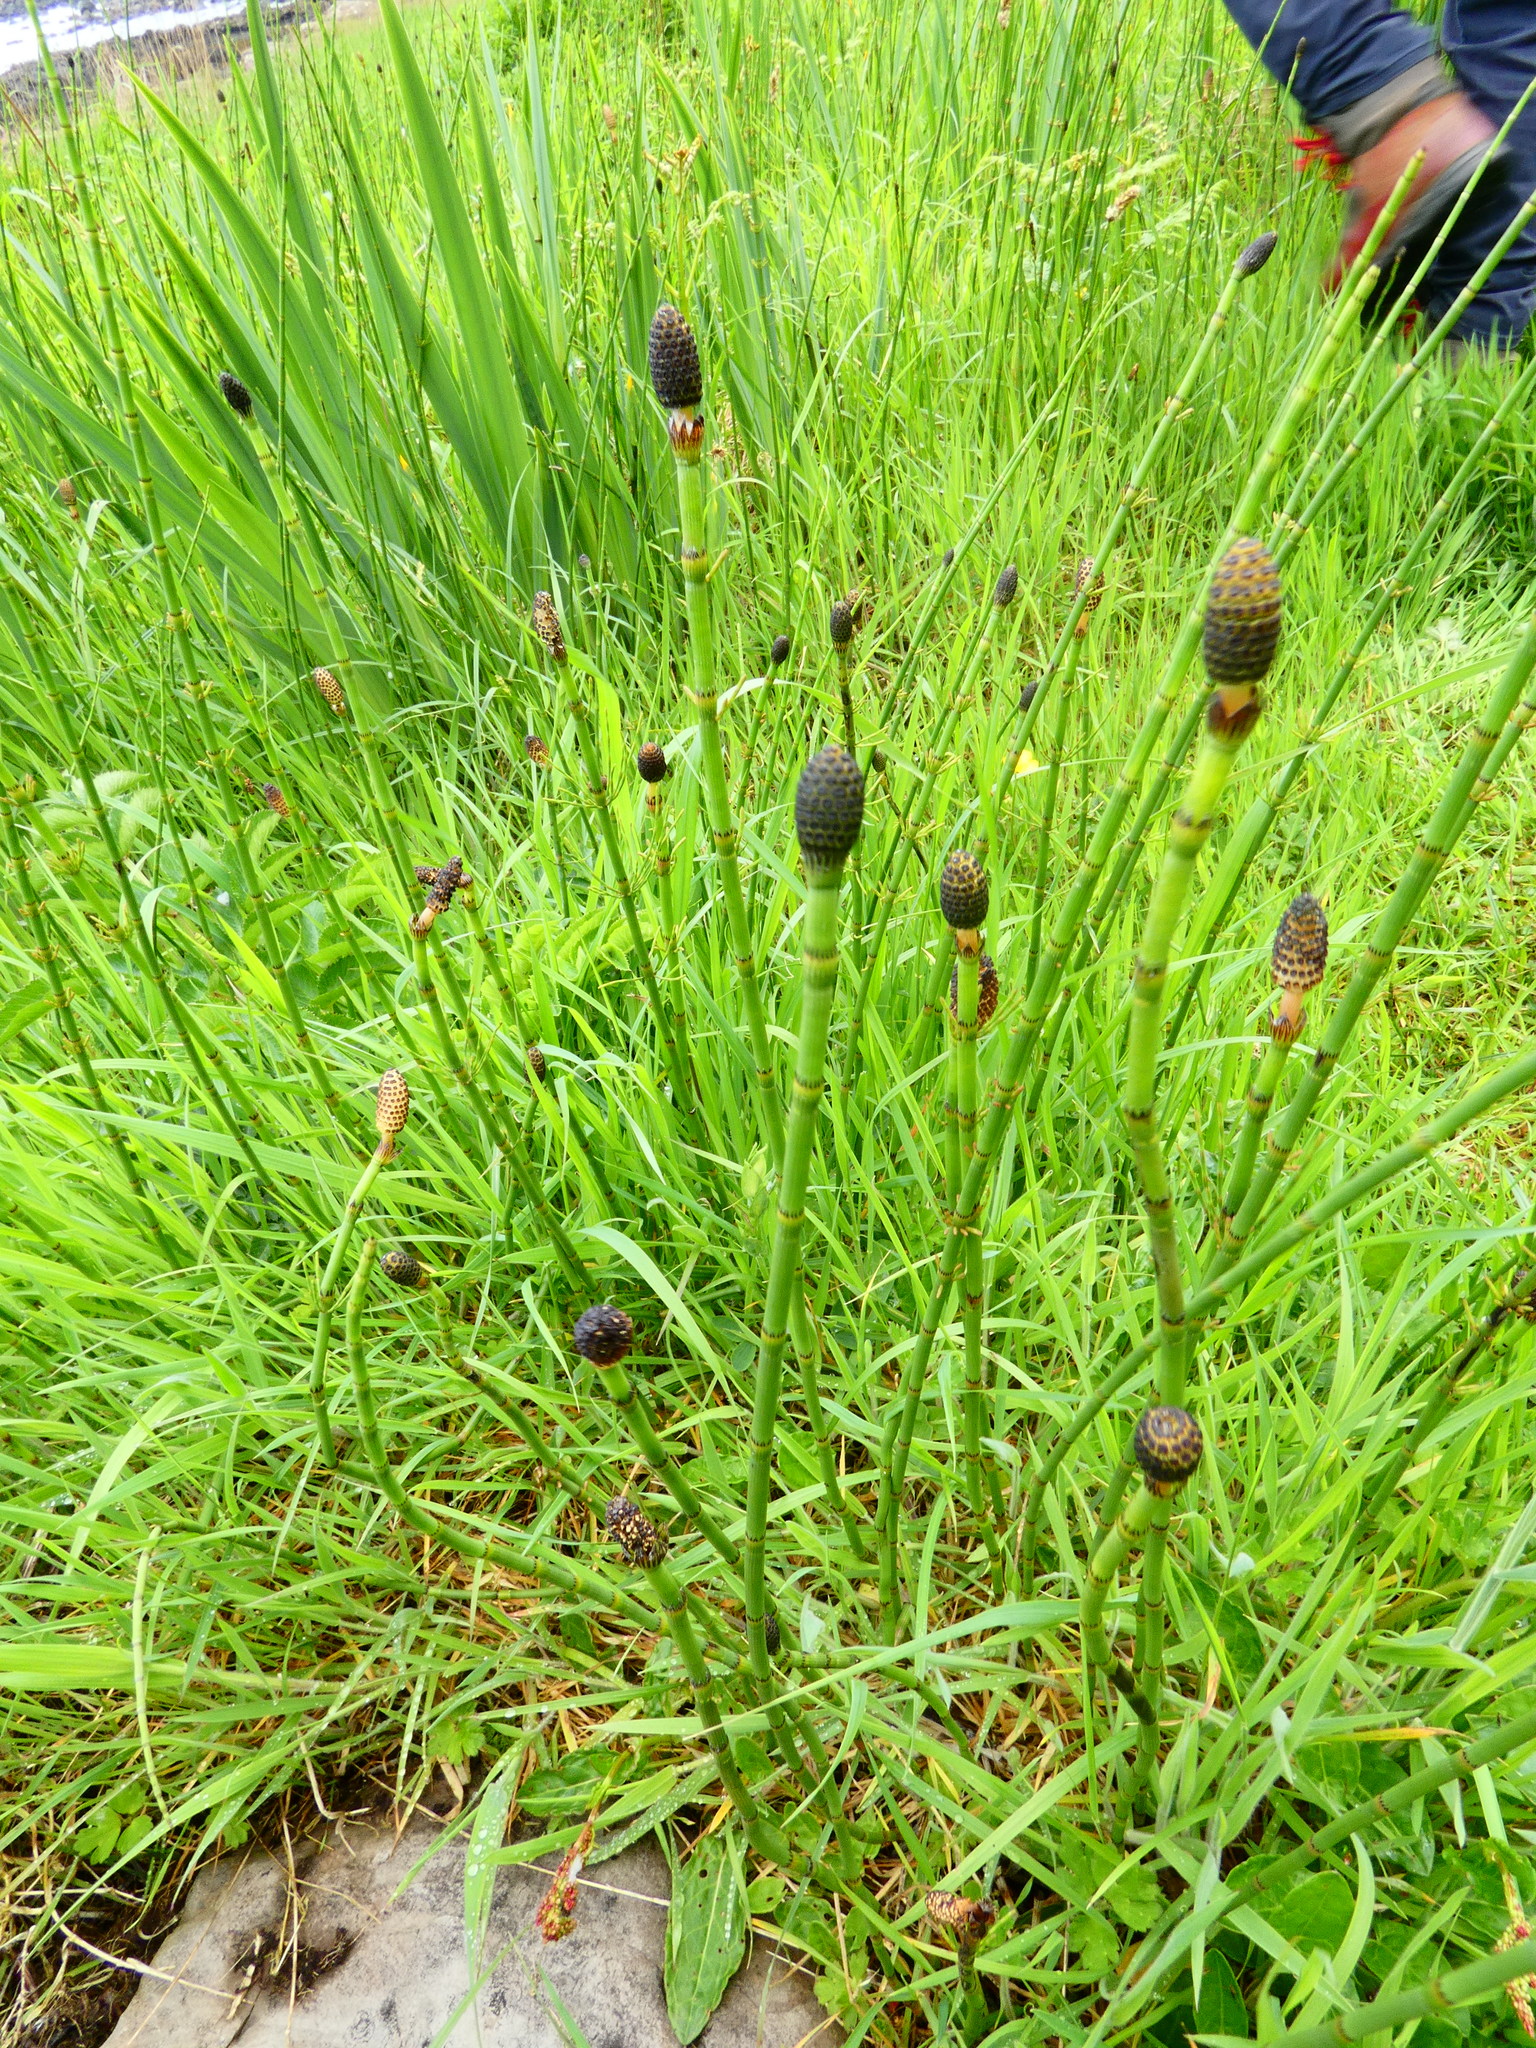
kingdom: Plantae
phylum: Tracheophyta
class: Polypodiopsida
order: Equisetales
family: Equisetaceae
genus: Equisetum
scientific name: Equisetum fluviatile
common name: Water horsetail
